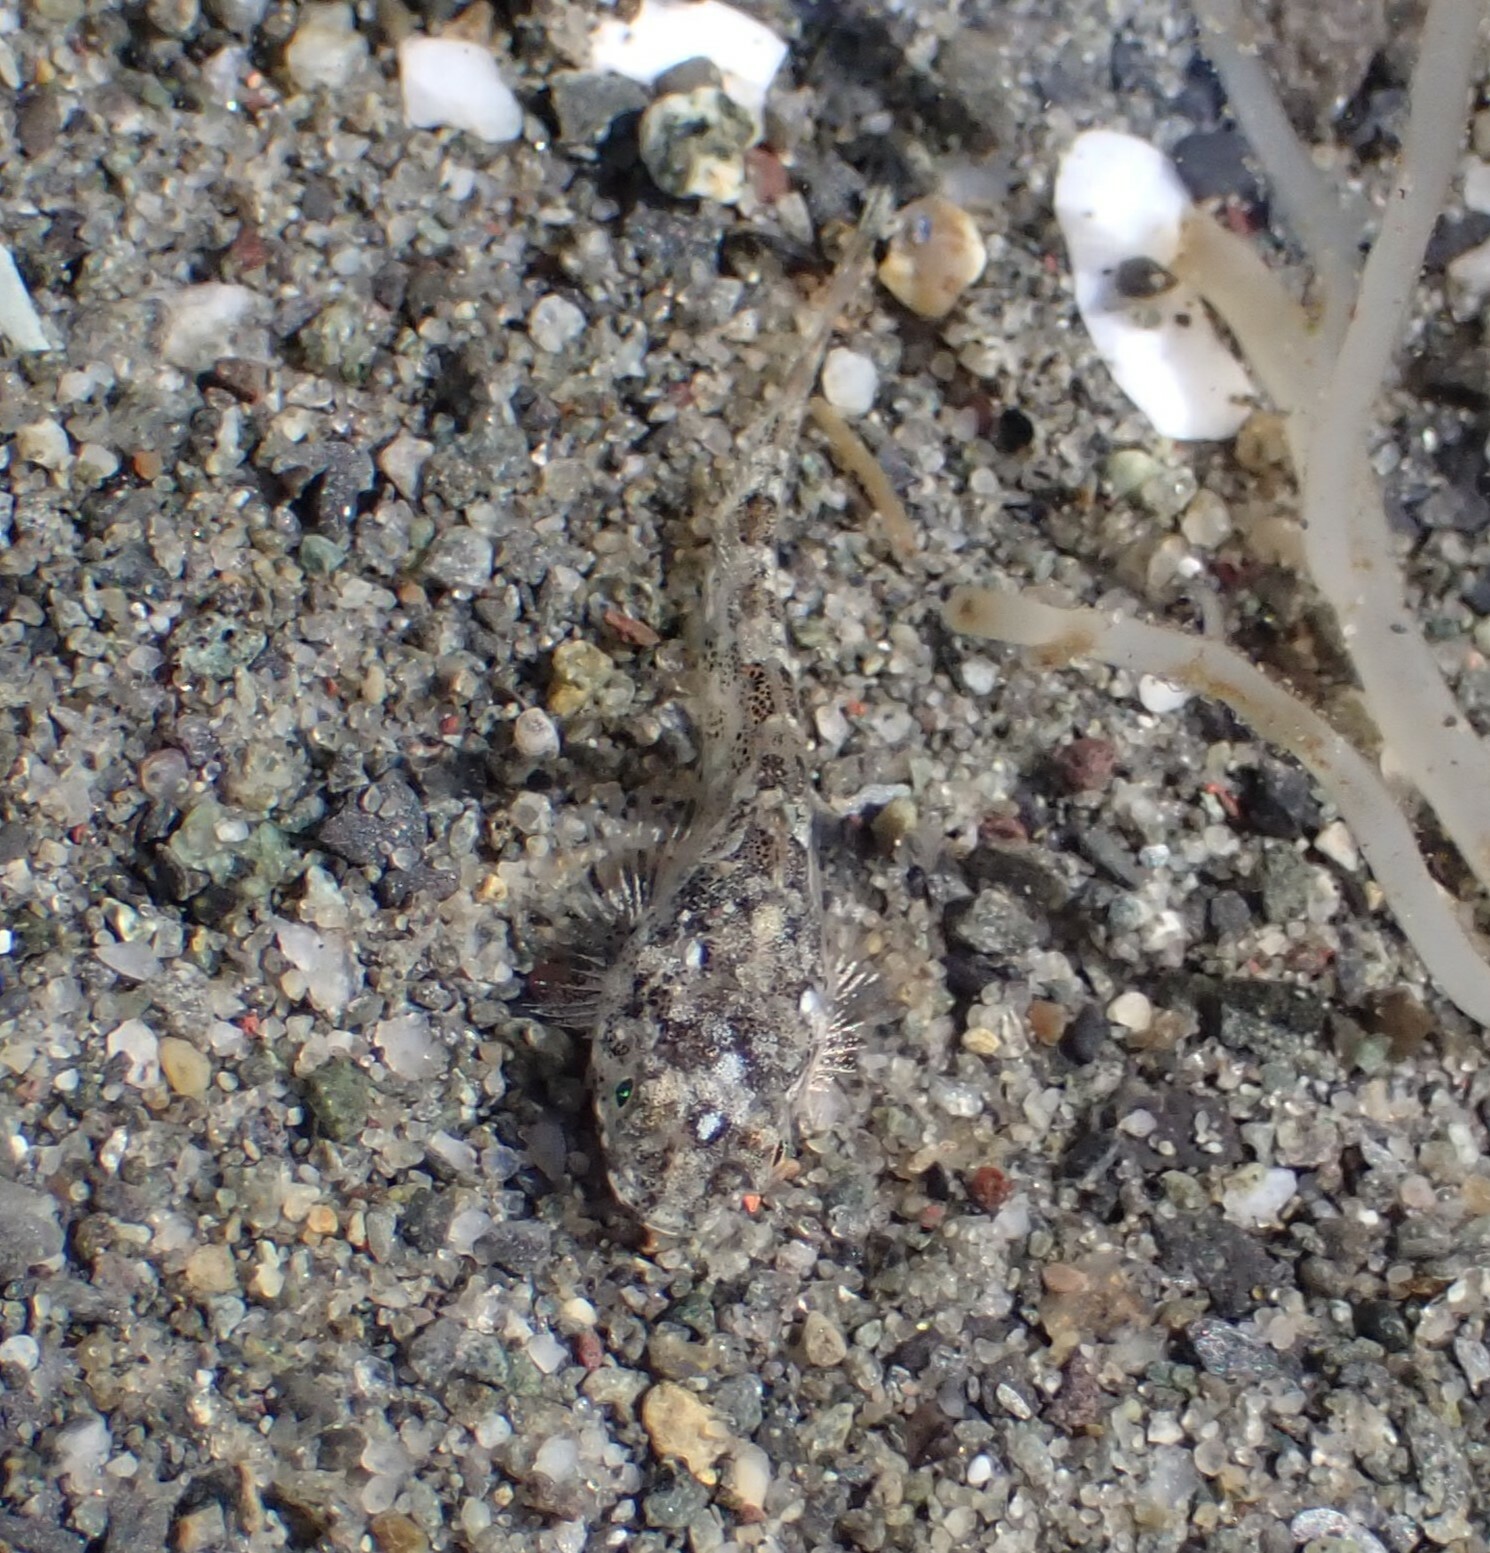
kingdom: Animalia
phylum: Chordata
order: Scorpaeniformes
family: Cottidae
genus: Leptocottus
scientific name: Leptocottus armatus
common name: Pacific staghorn sculpin
